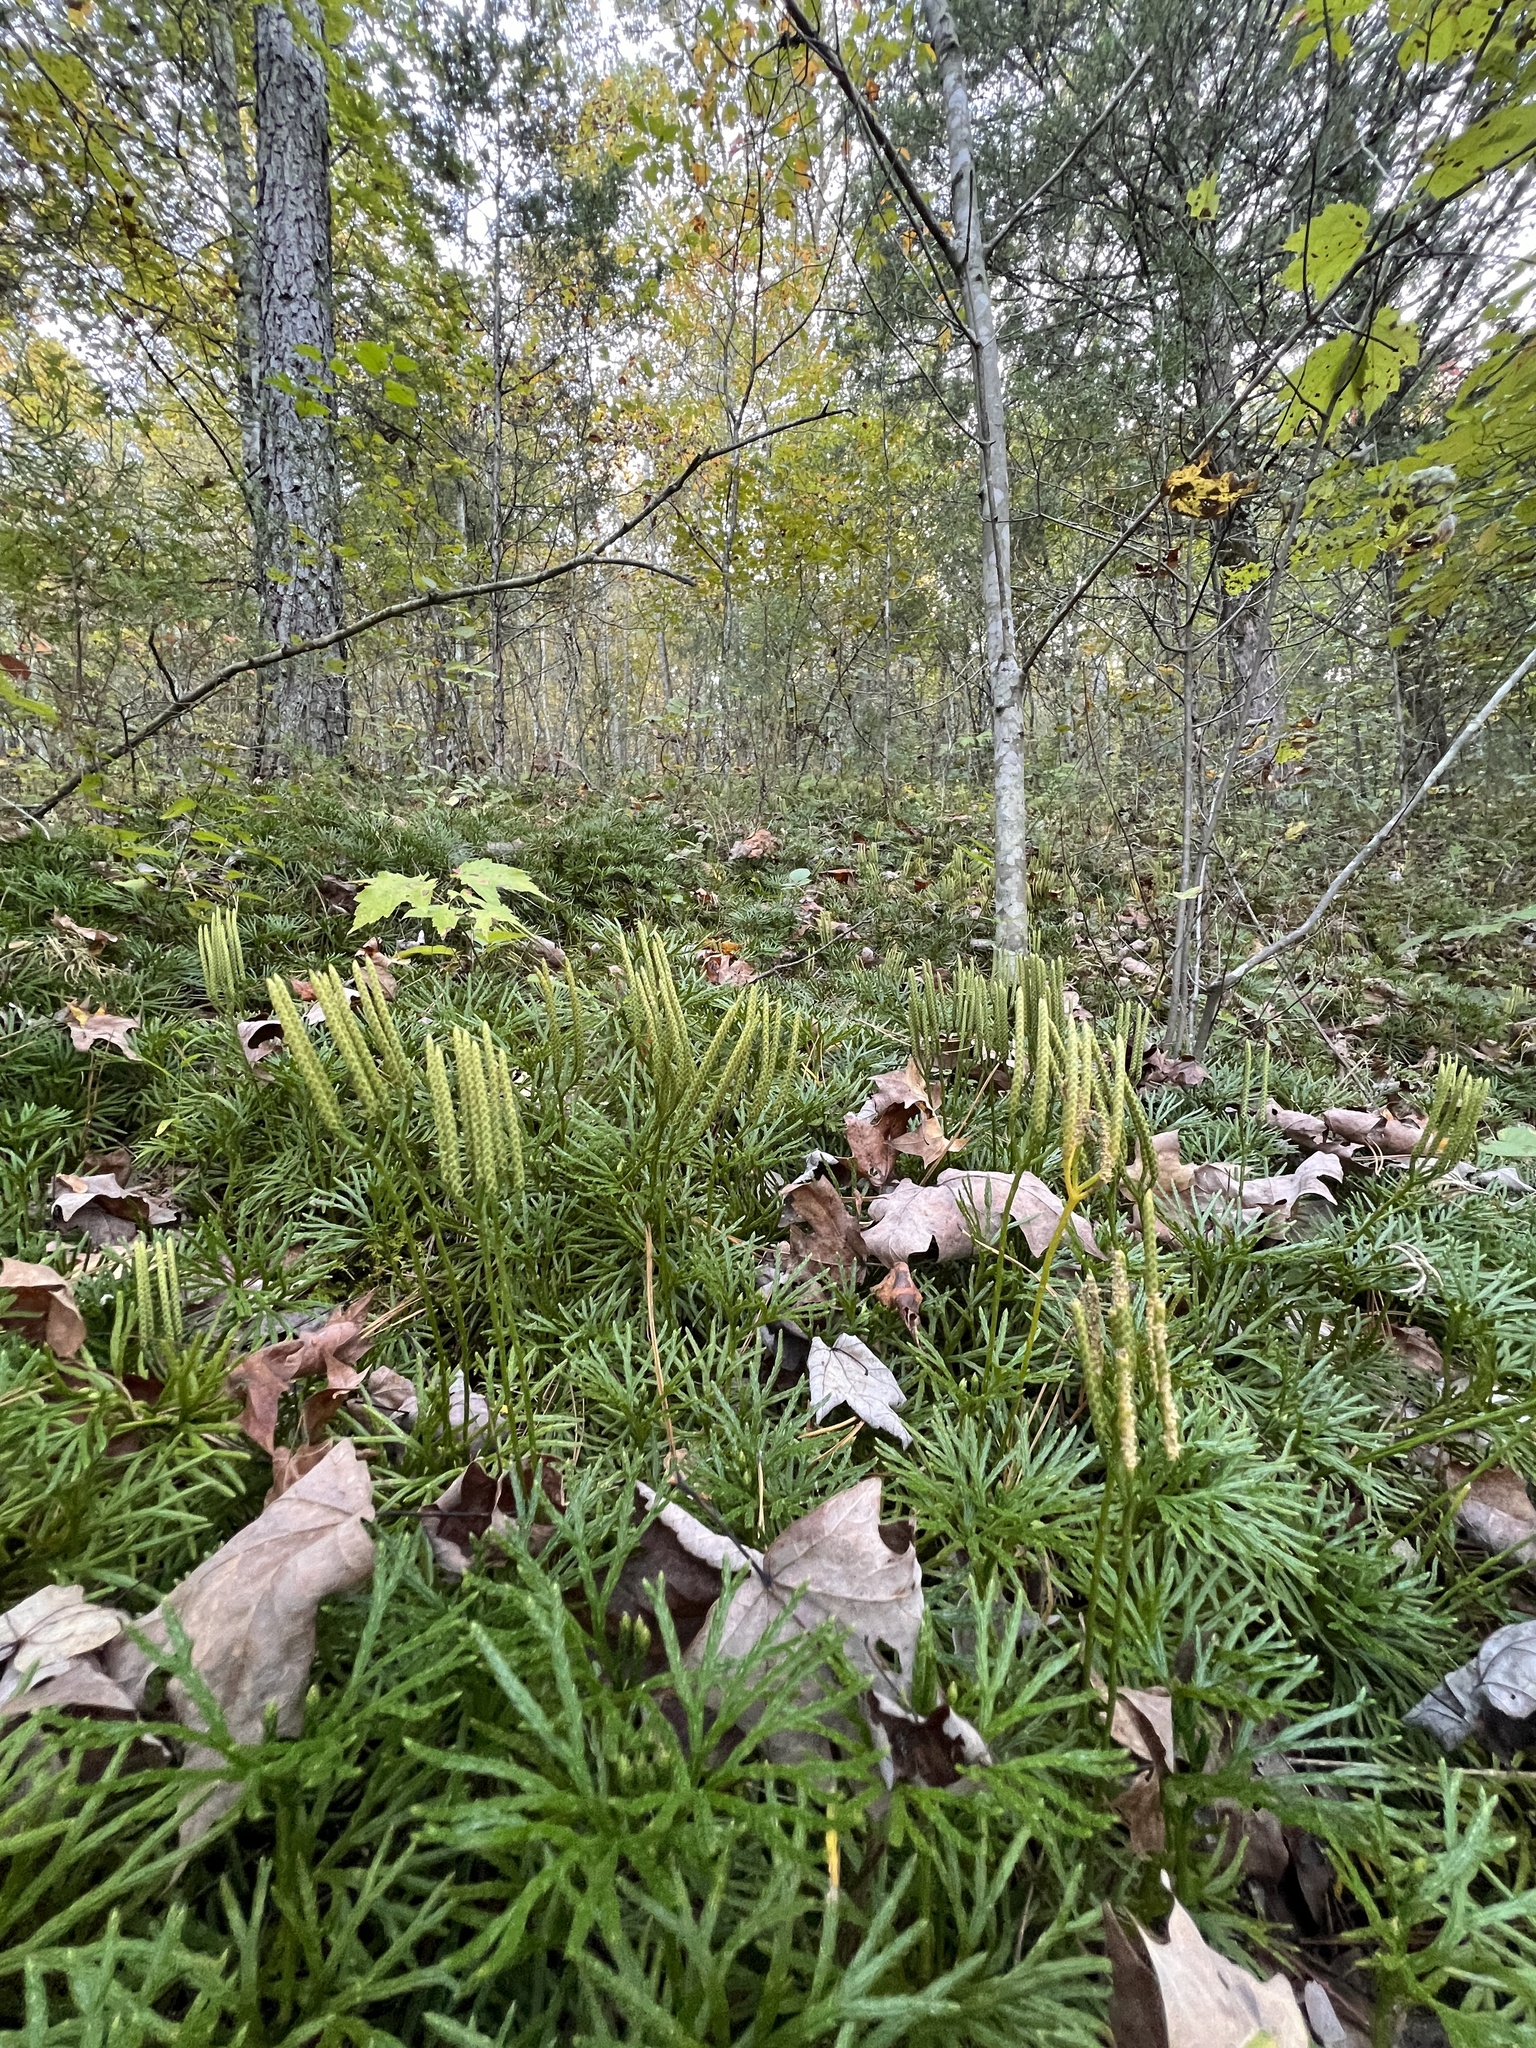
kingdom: Plantae
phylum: Tracheophyta
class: Lycopodiopsida
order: Lycopodiales
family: Lycopodiaceae
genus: Diphasiastrum
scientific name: Diphasiastrum digitatum
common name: Southern running-pine
